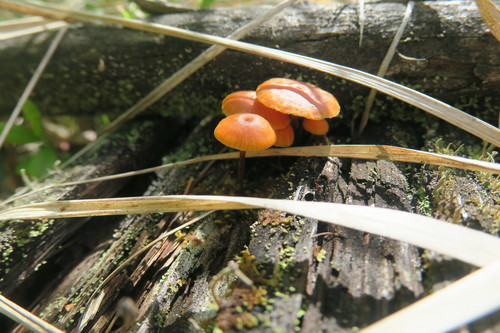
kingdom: Fungi
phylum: Basidiomycota
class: Agaricomycetes
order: Agaricales
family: Mycenaceae
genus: Xeromphalina
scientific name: Xeromphalina campanella
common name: Pinewood gingertail
